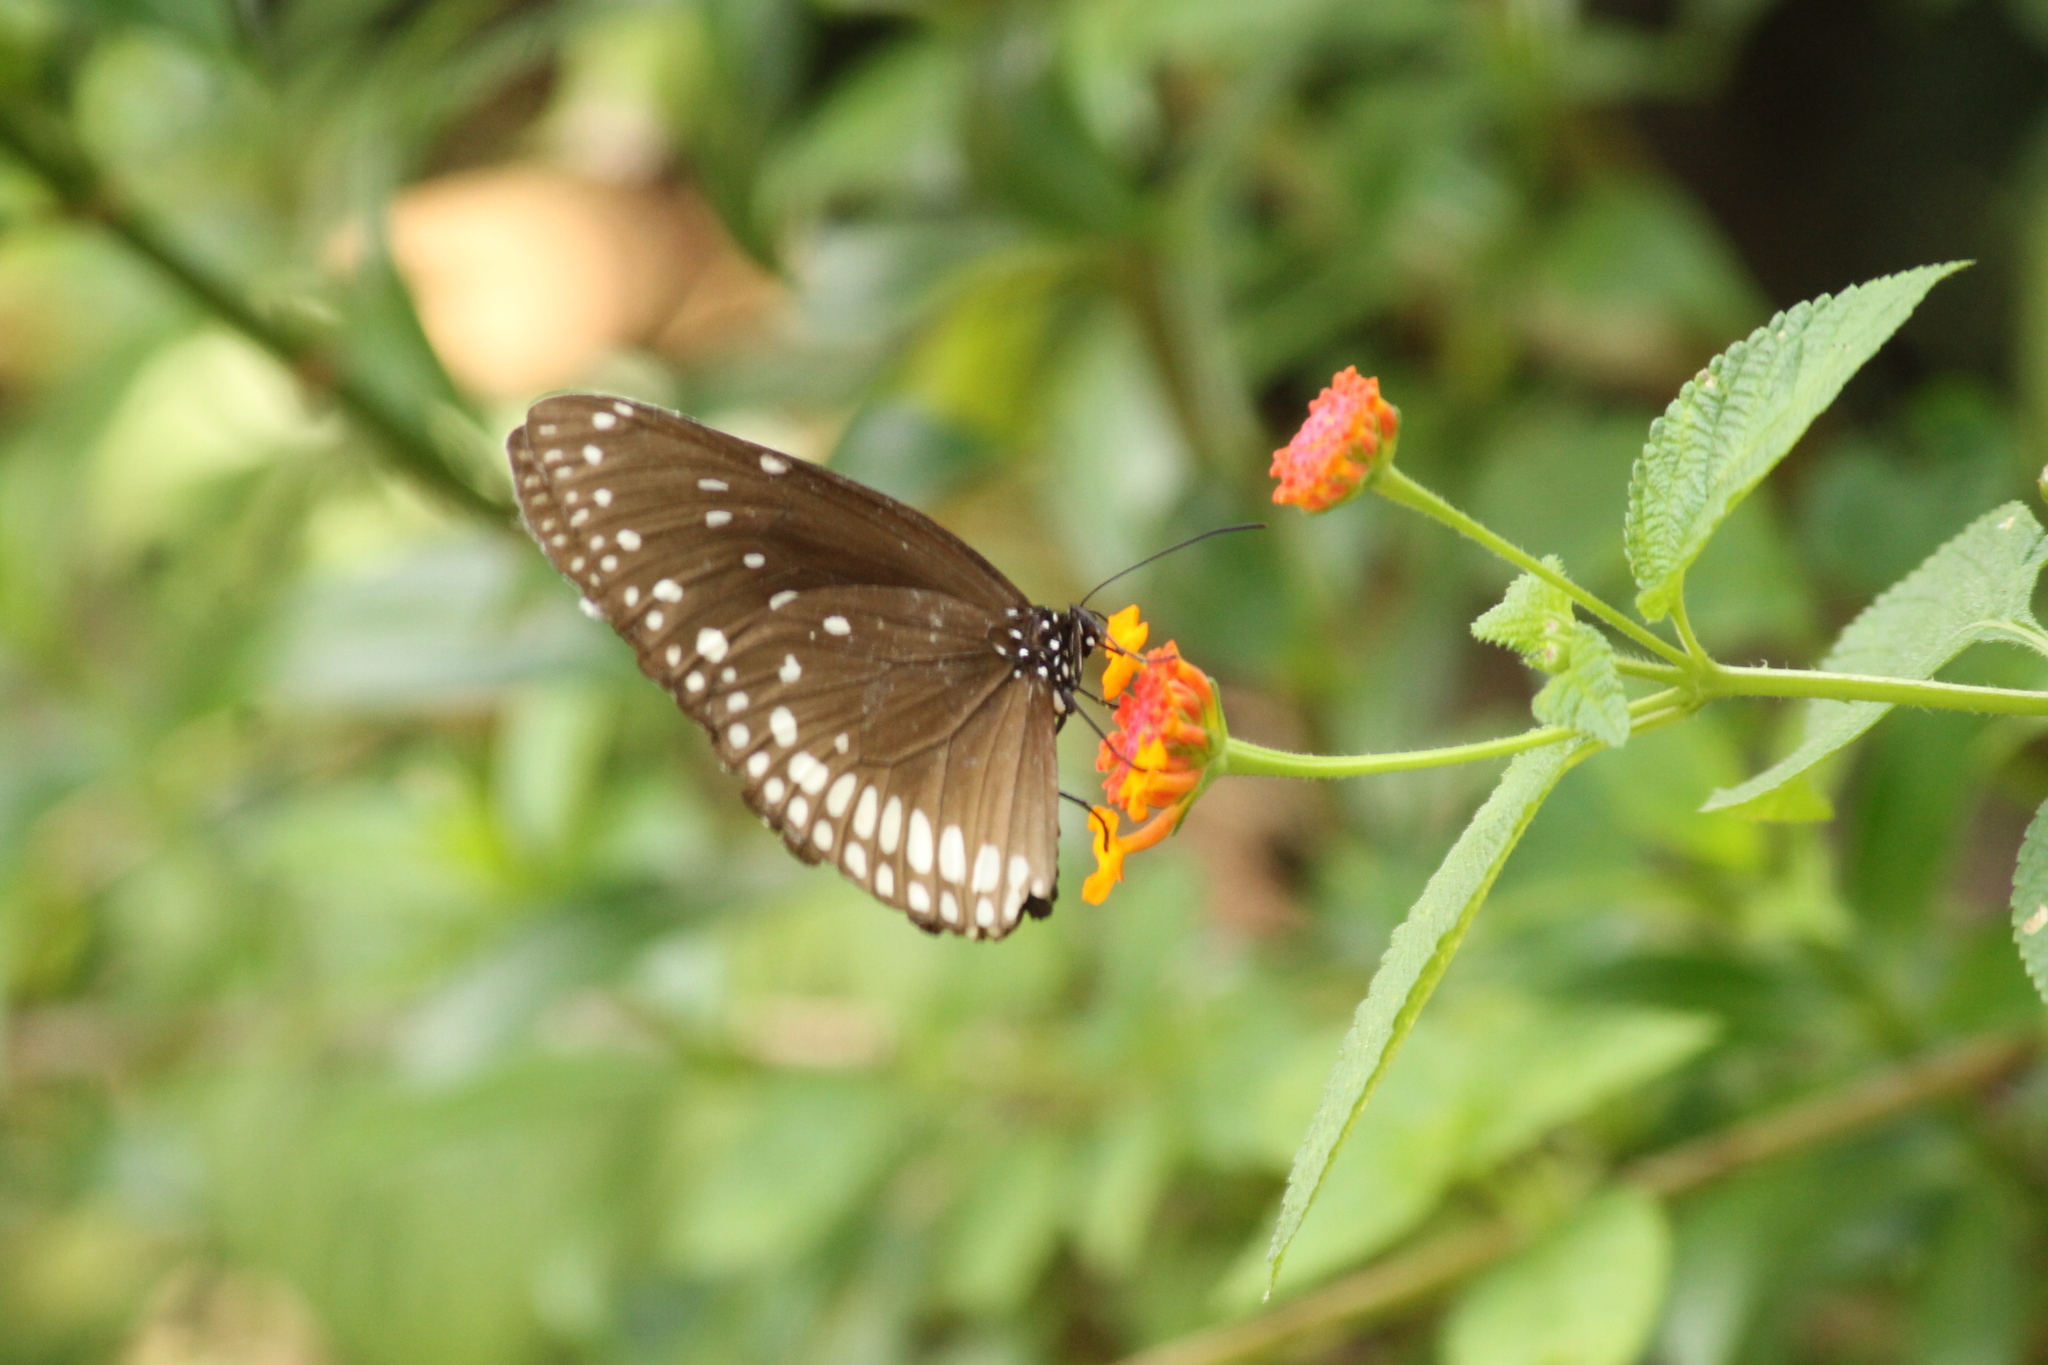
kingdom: Animalia
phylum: Arthropoda
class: Insecta
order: Lepidoptera
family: Nymphalidae
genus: Euploea
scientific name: Euploea core
